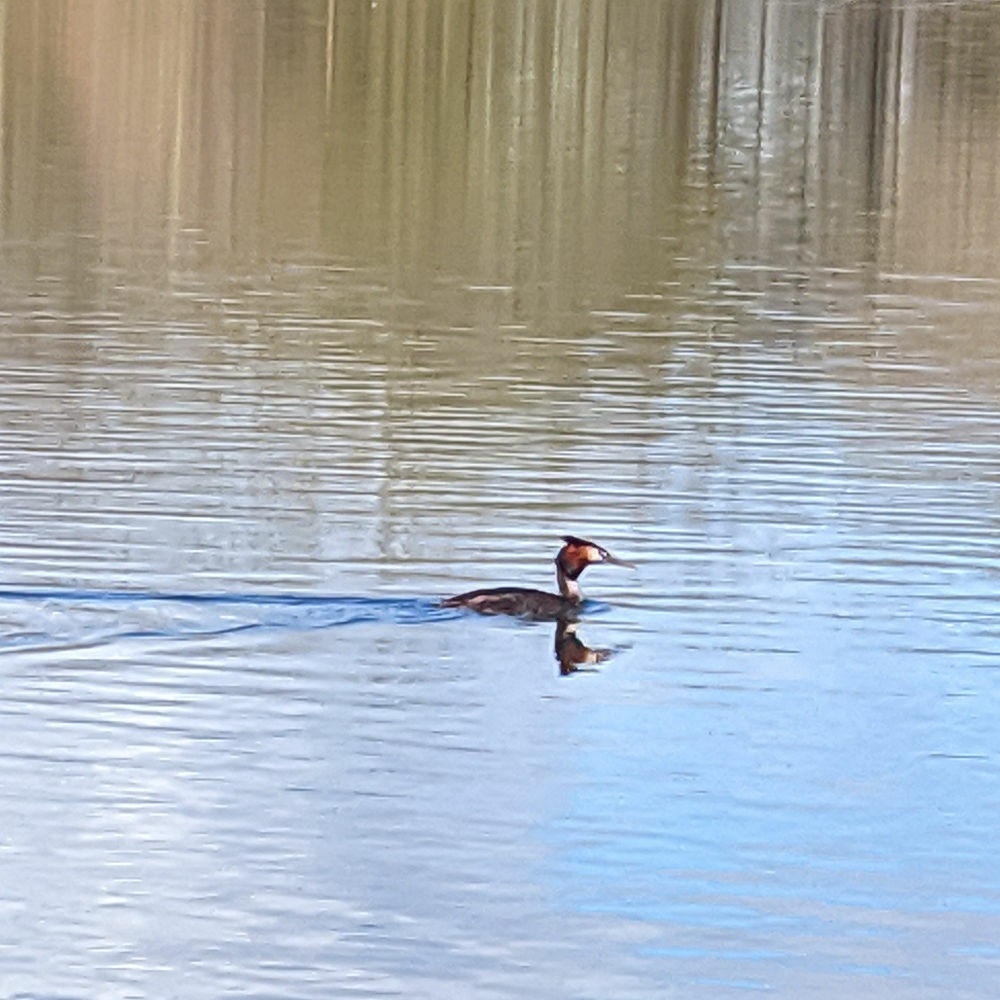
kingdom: Animalia
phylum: Chordata
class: Aves
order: Podicipediformes
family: Podicipedidae
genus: Podiceps
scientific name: Podiceps cristatus
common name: Great crested grebe
